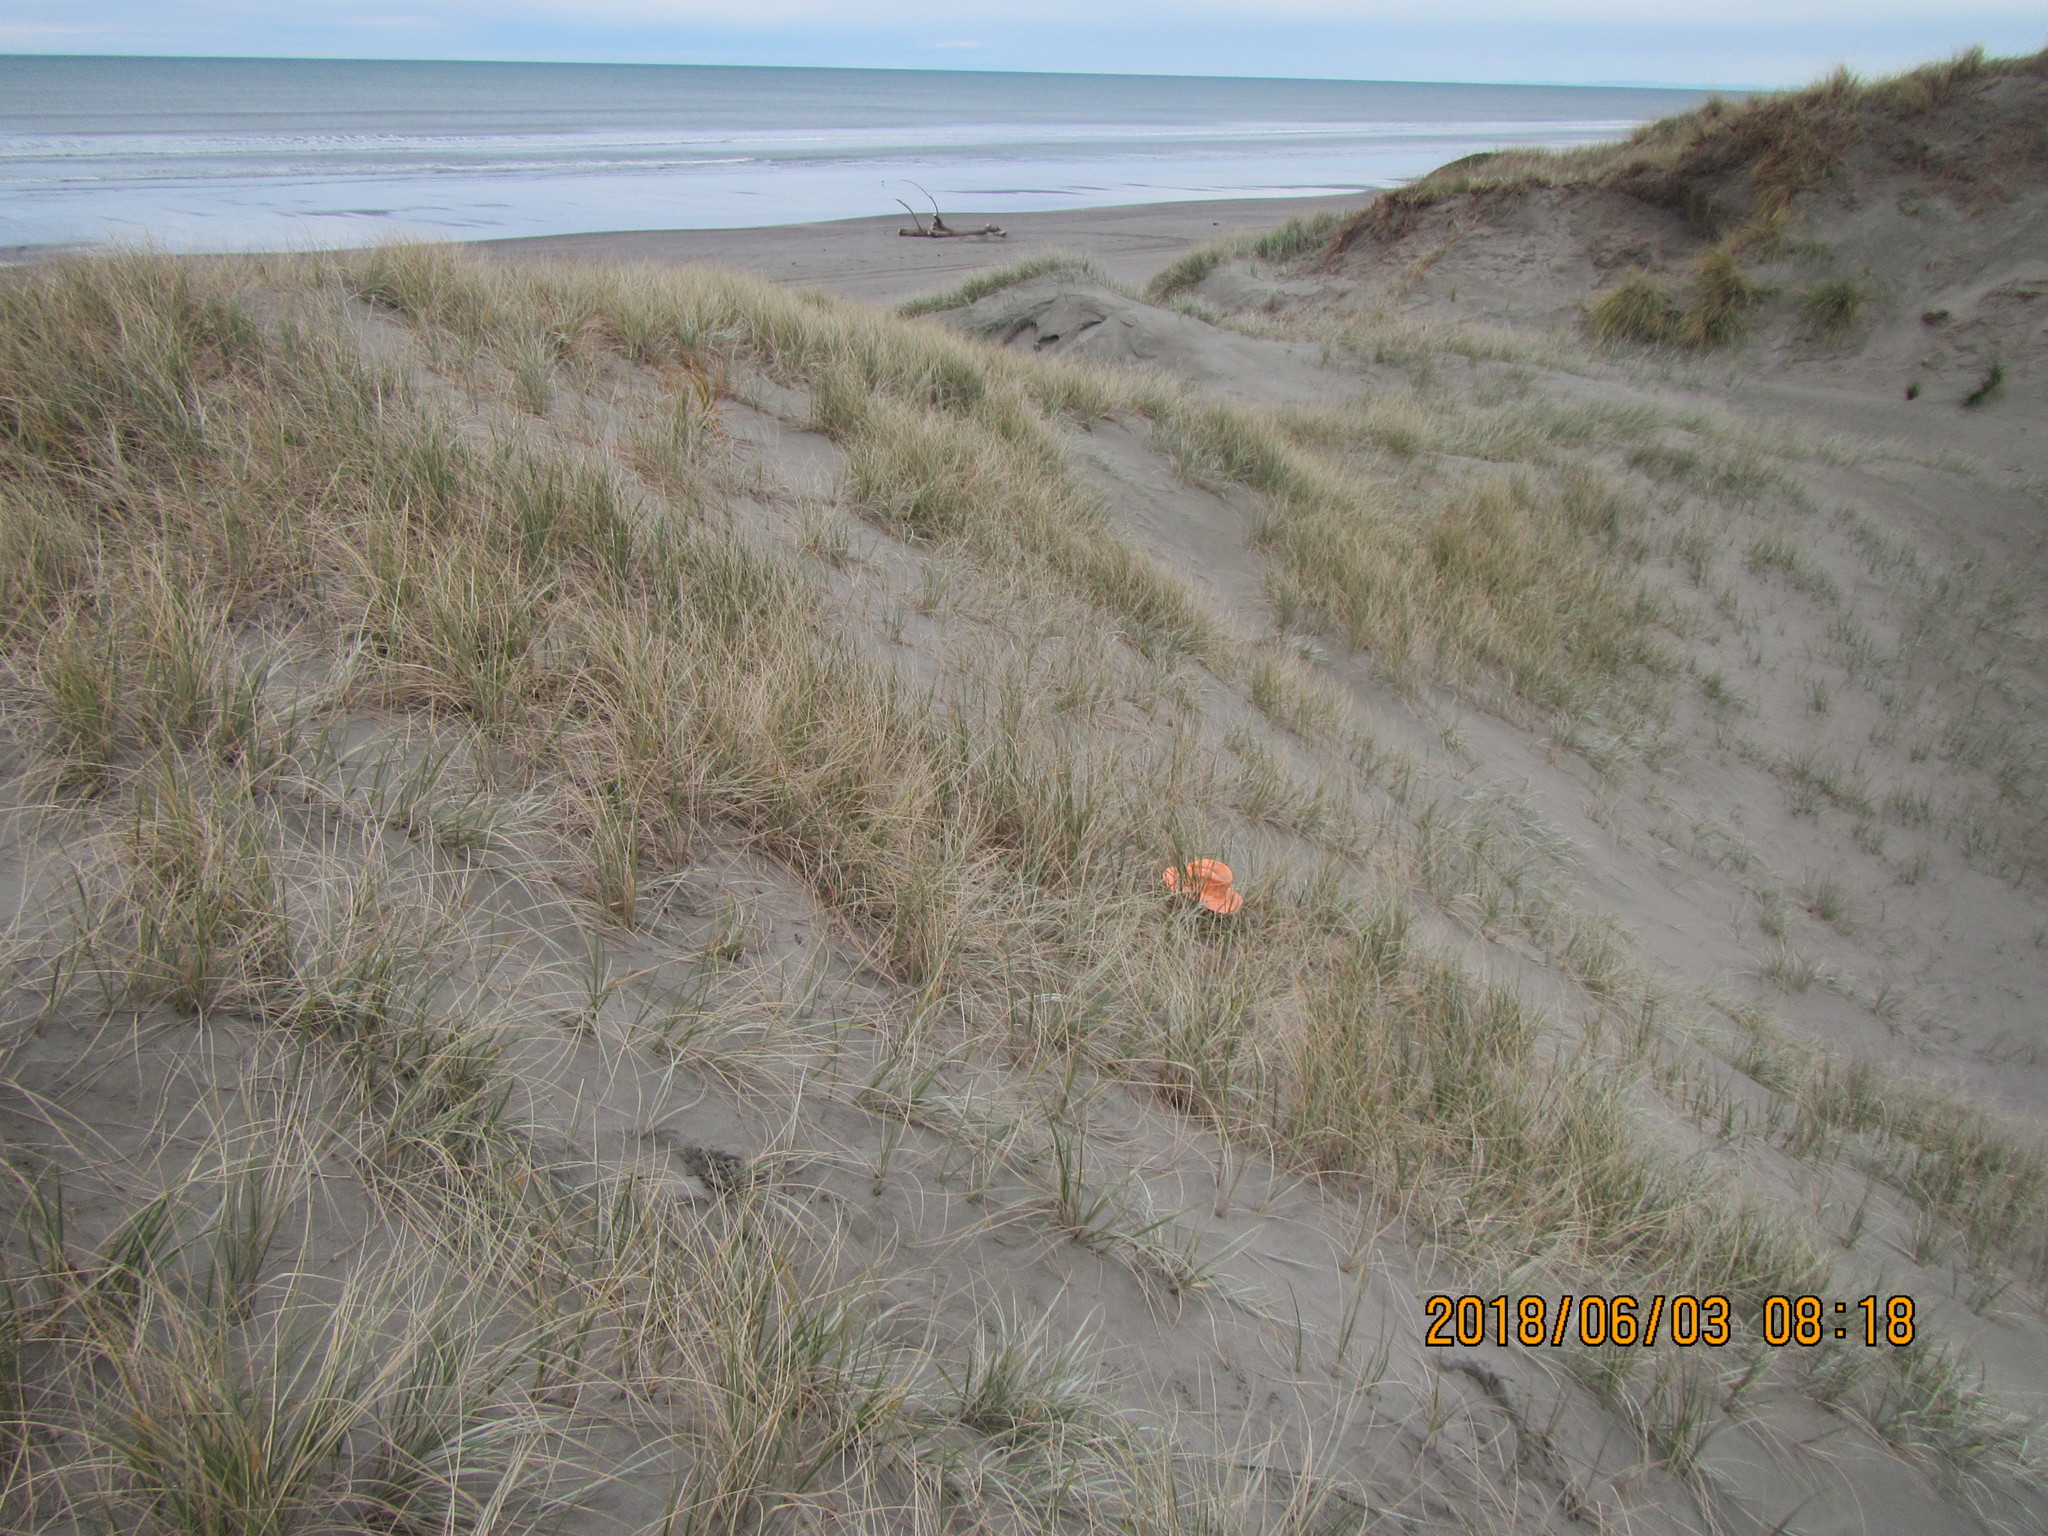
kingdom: Animalia
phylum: Arthropoda
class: Arachnida
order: Araneae
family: Theridiidae
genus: Latrodectus
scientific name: Latrodectus katipo
